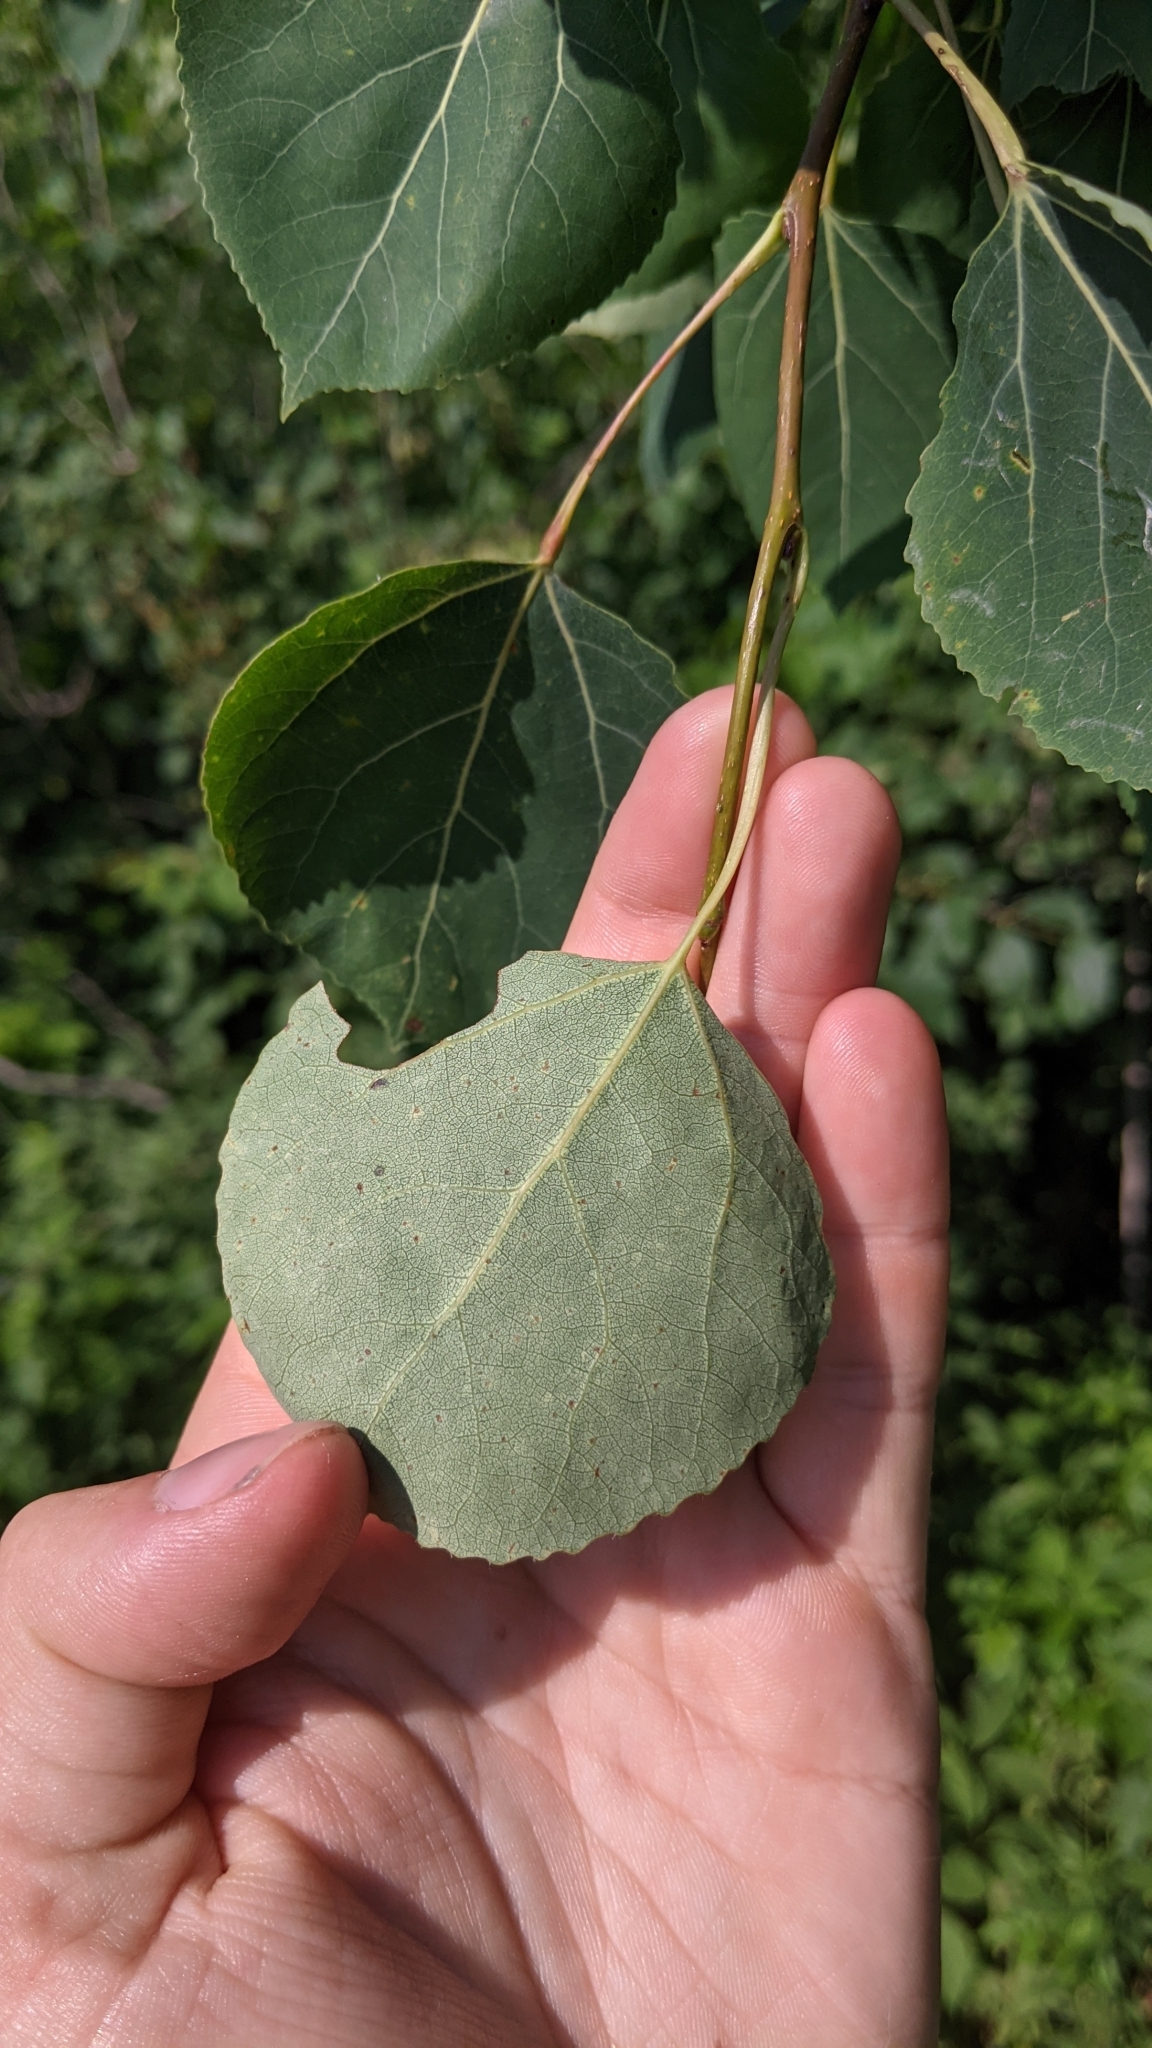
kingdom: Plantae
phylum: Tracheophyta
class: Magnoliopsida
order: Malpighiales
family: Salicaceae
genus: Populus
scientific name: Populus tremuloides
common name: Quaking aspen
